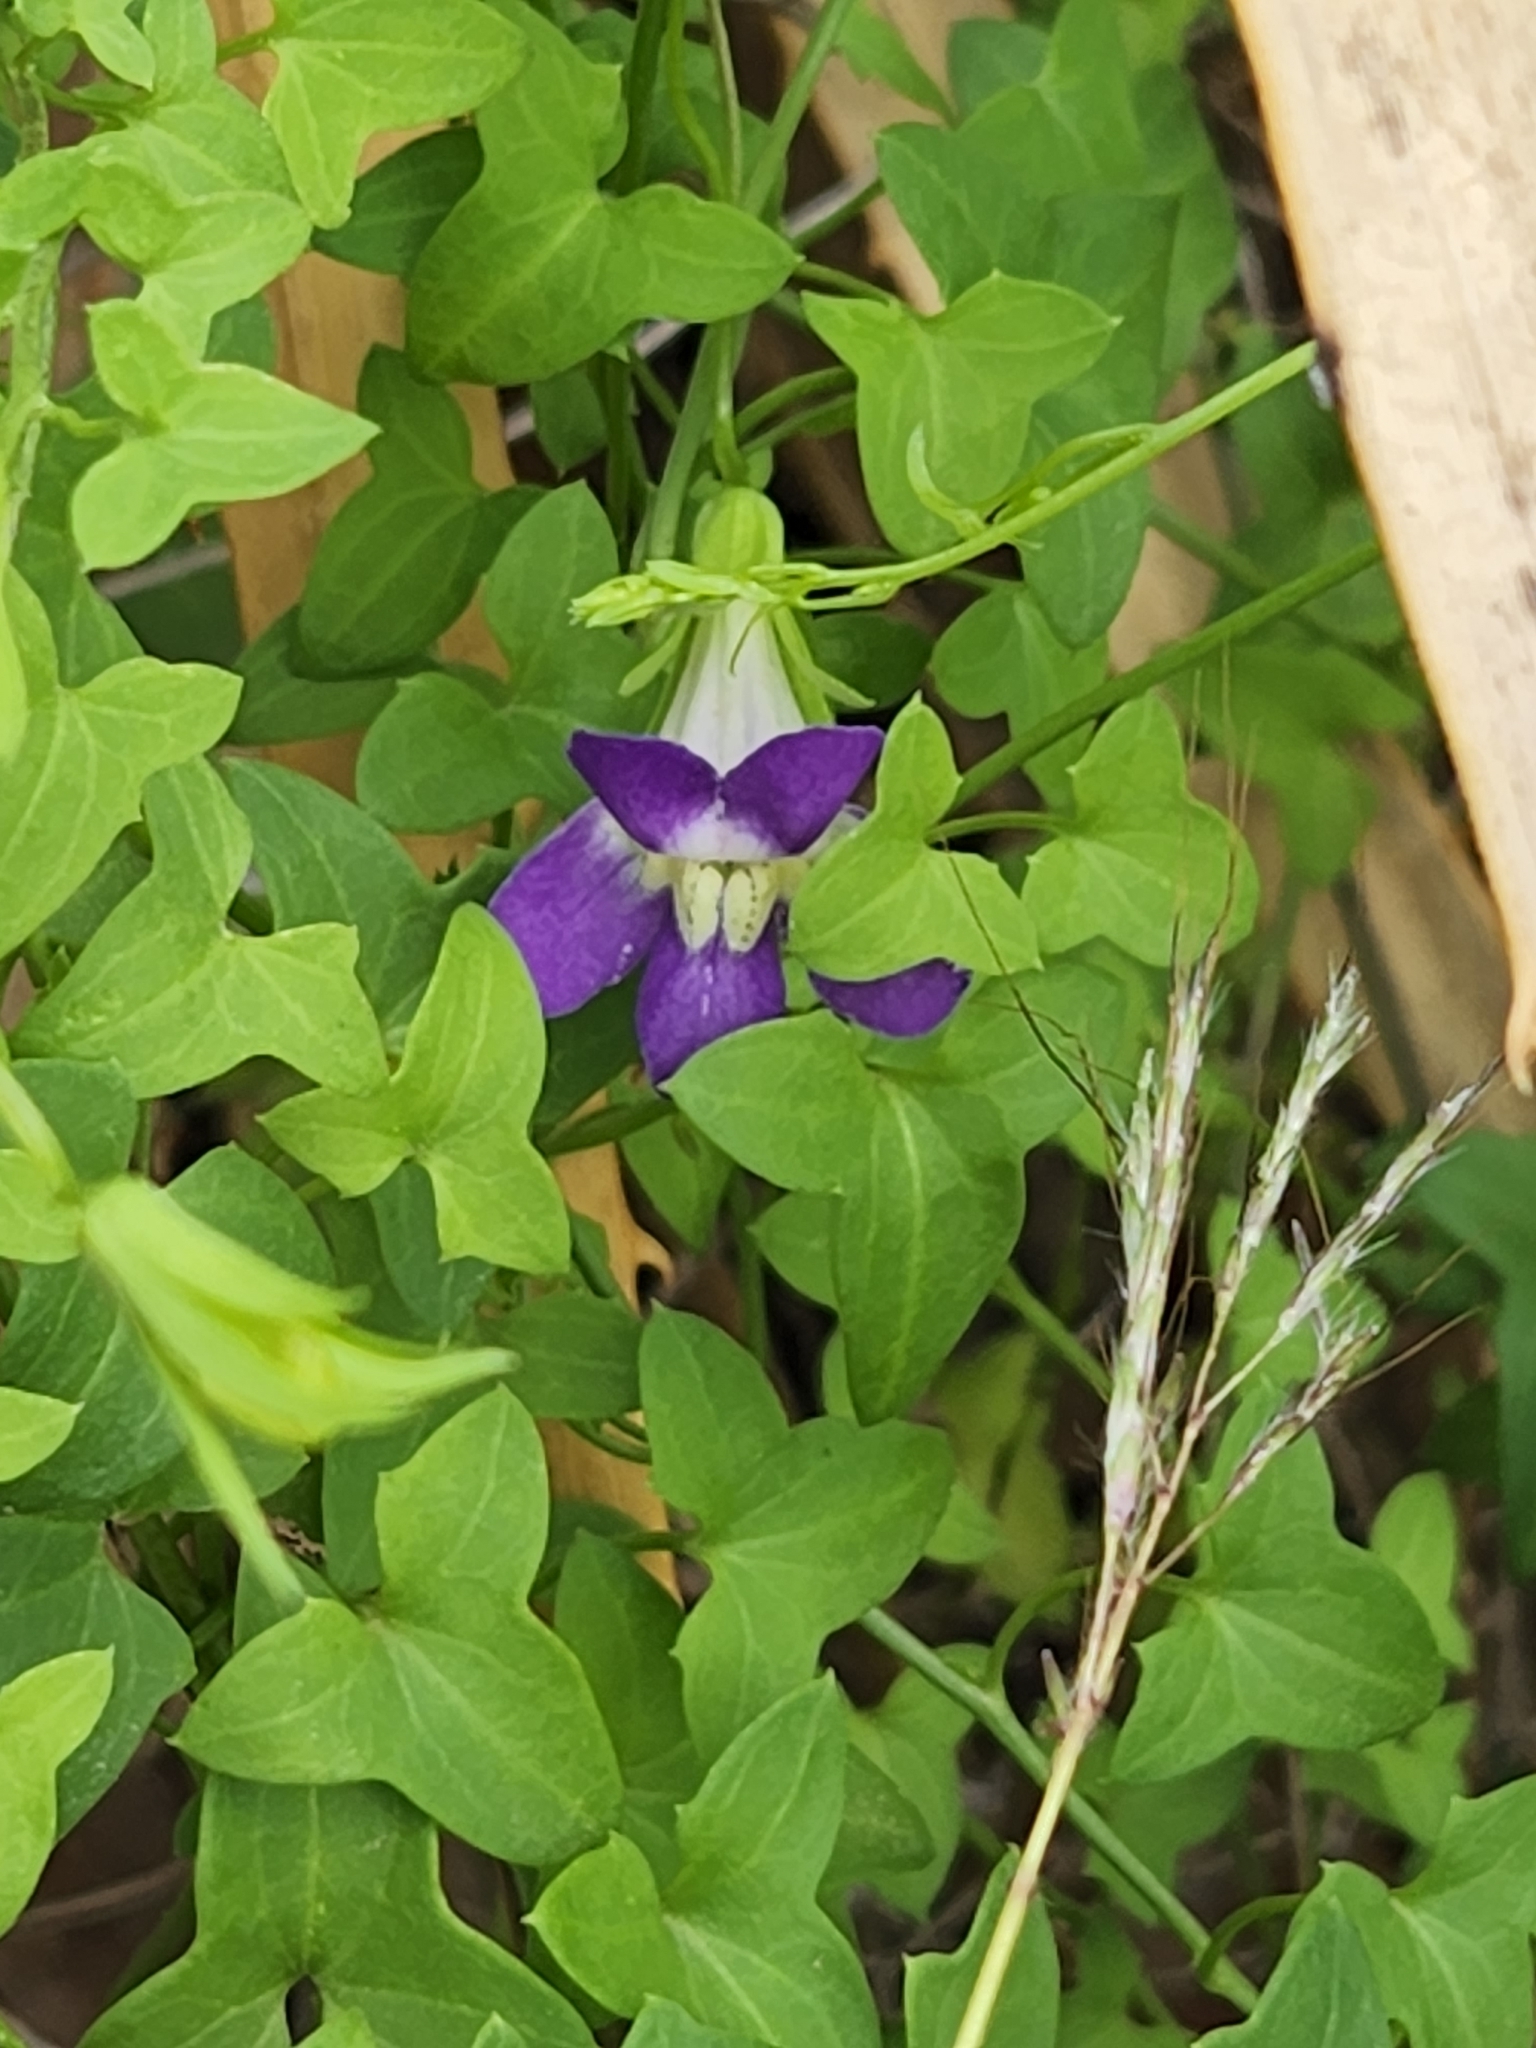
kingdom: Plantae
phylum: Tracheophyta
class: Magnoliopsida
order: Lamiales
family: Plantaginaceae
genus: Maurandella
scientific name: Maurandella antirrhiniflora
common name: Violet twining-snapdragon
